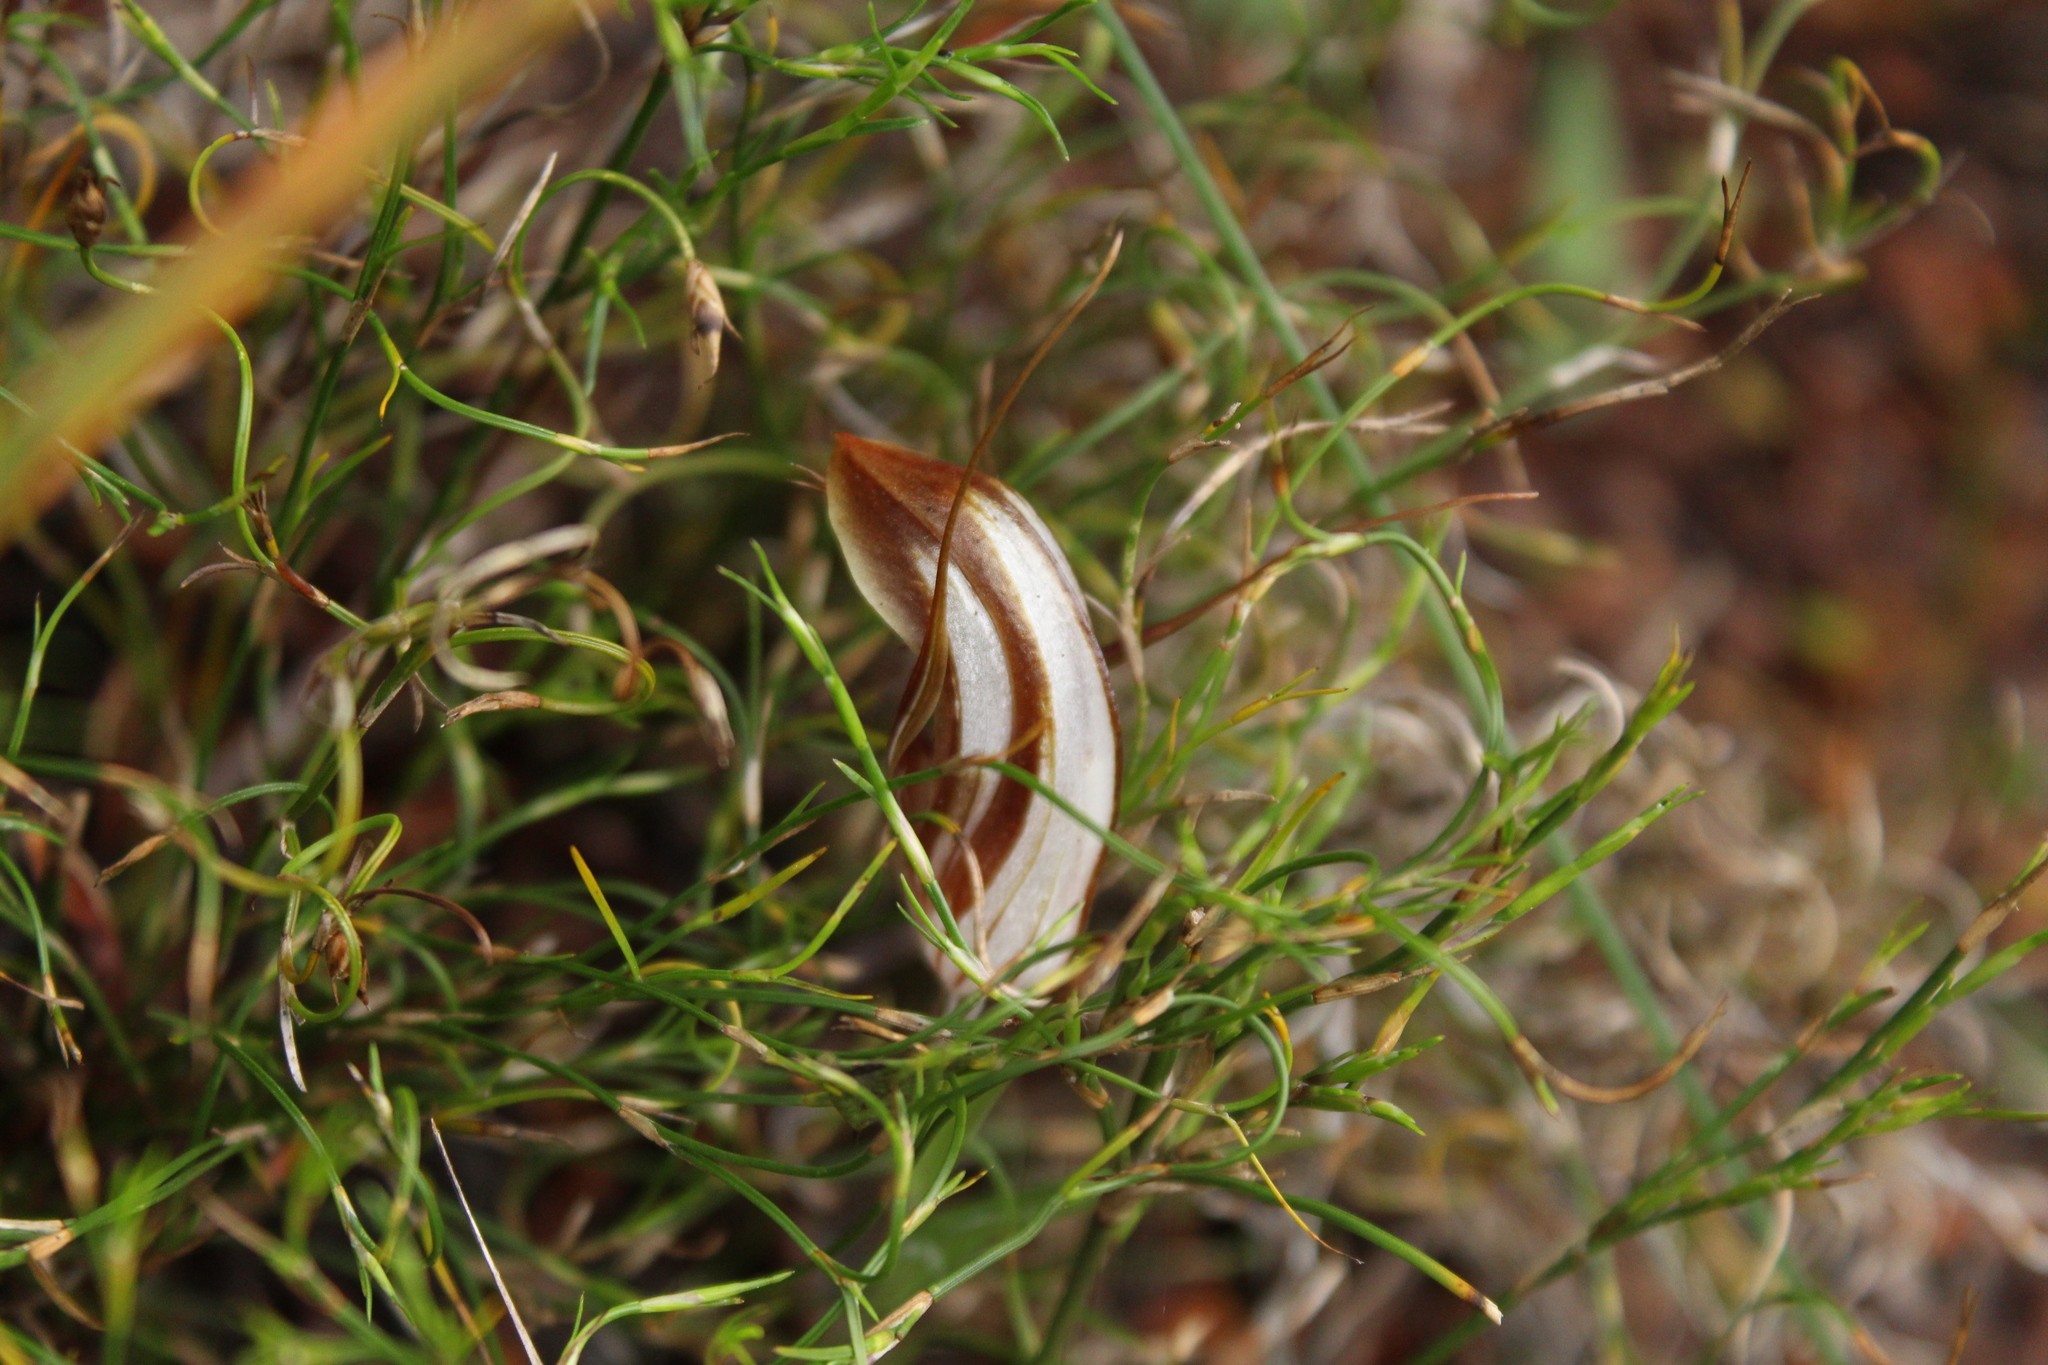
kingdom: Plantae
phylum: Tracheophyta
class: Liliopsida
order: Asparagales
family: Orchidaceae
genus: Pterostylis
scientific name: Pterostylis rogersii
